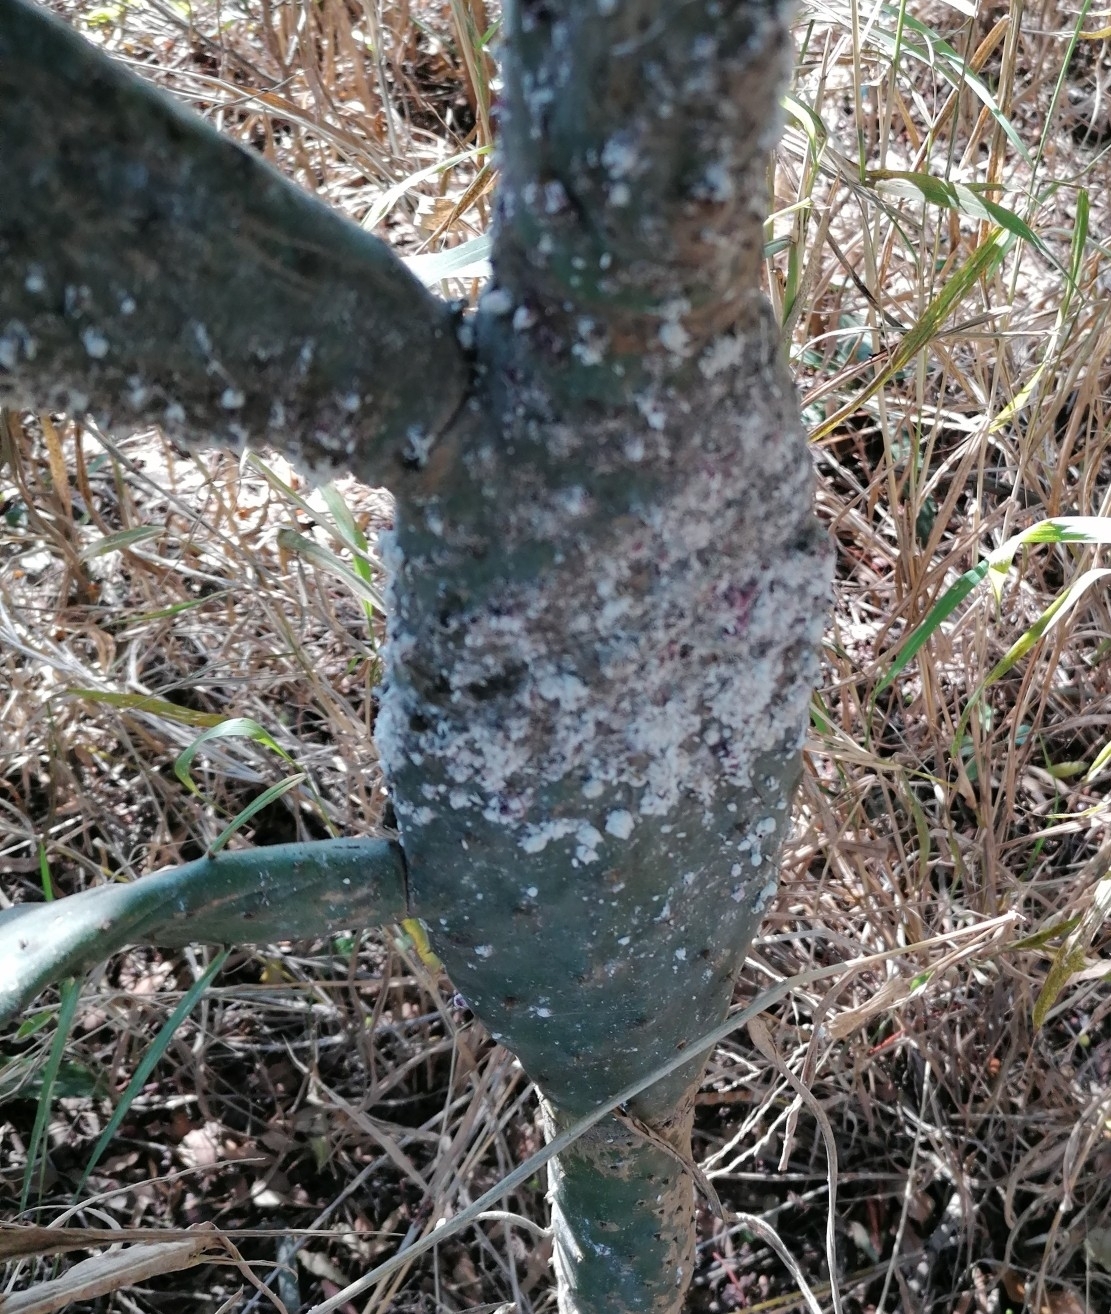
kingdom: Animalia
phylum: Arthropoda
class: Insecta
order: Hemiptera
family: Dactylopiidae
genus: Dactylopius
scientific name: Dactylopius opuntiae
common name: Opuntia cochineal scale
